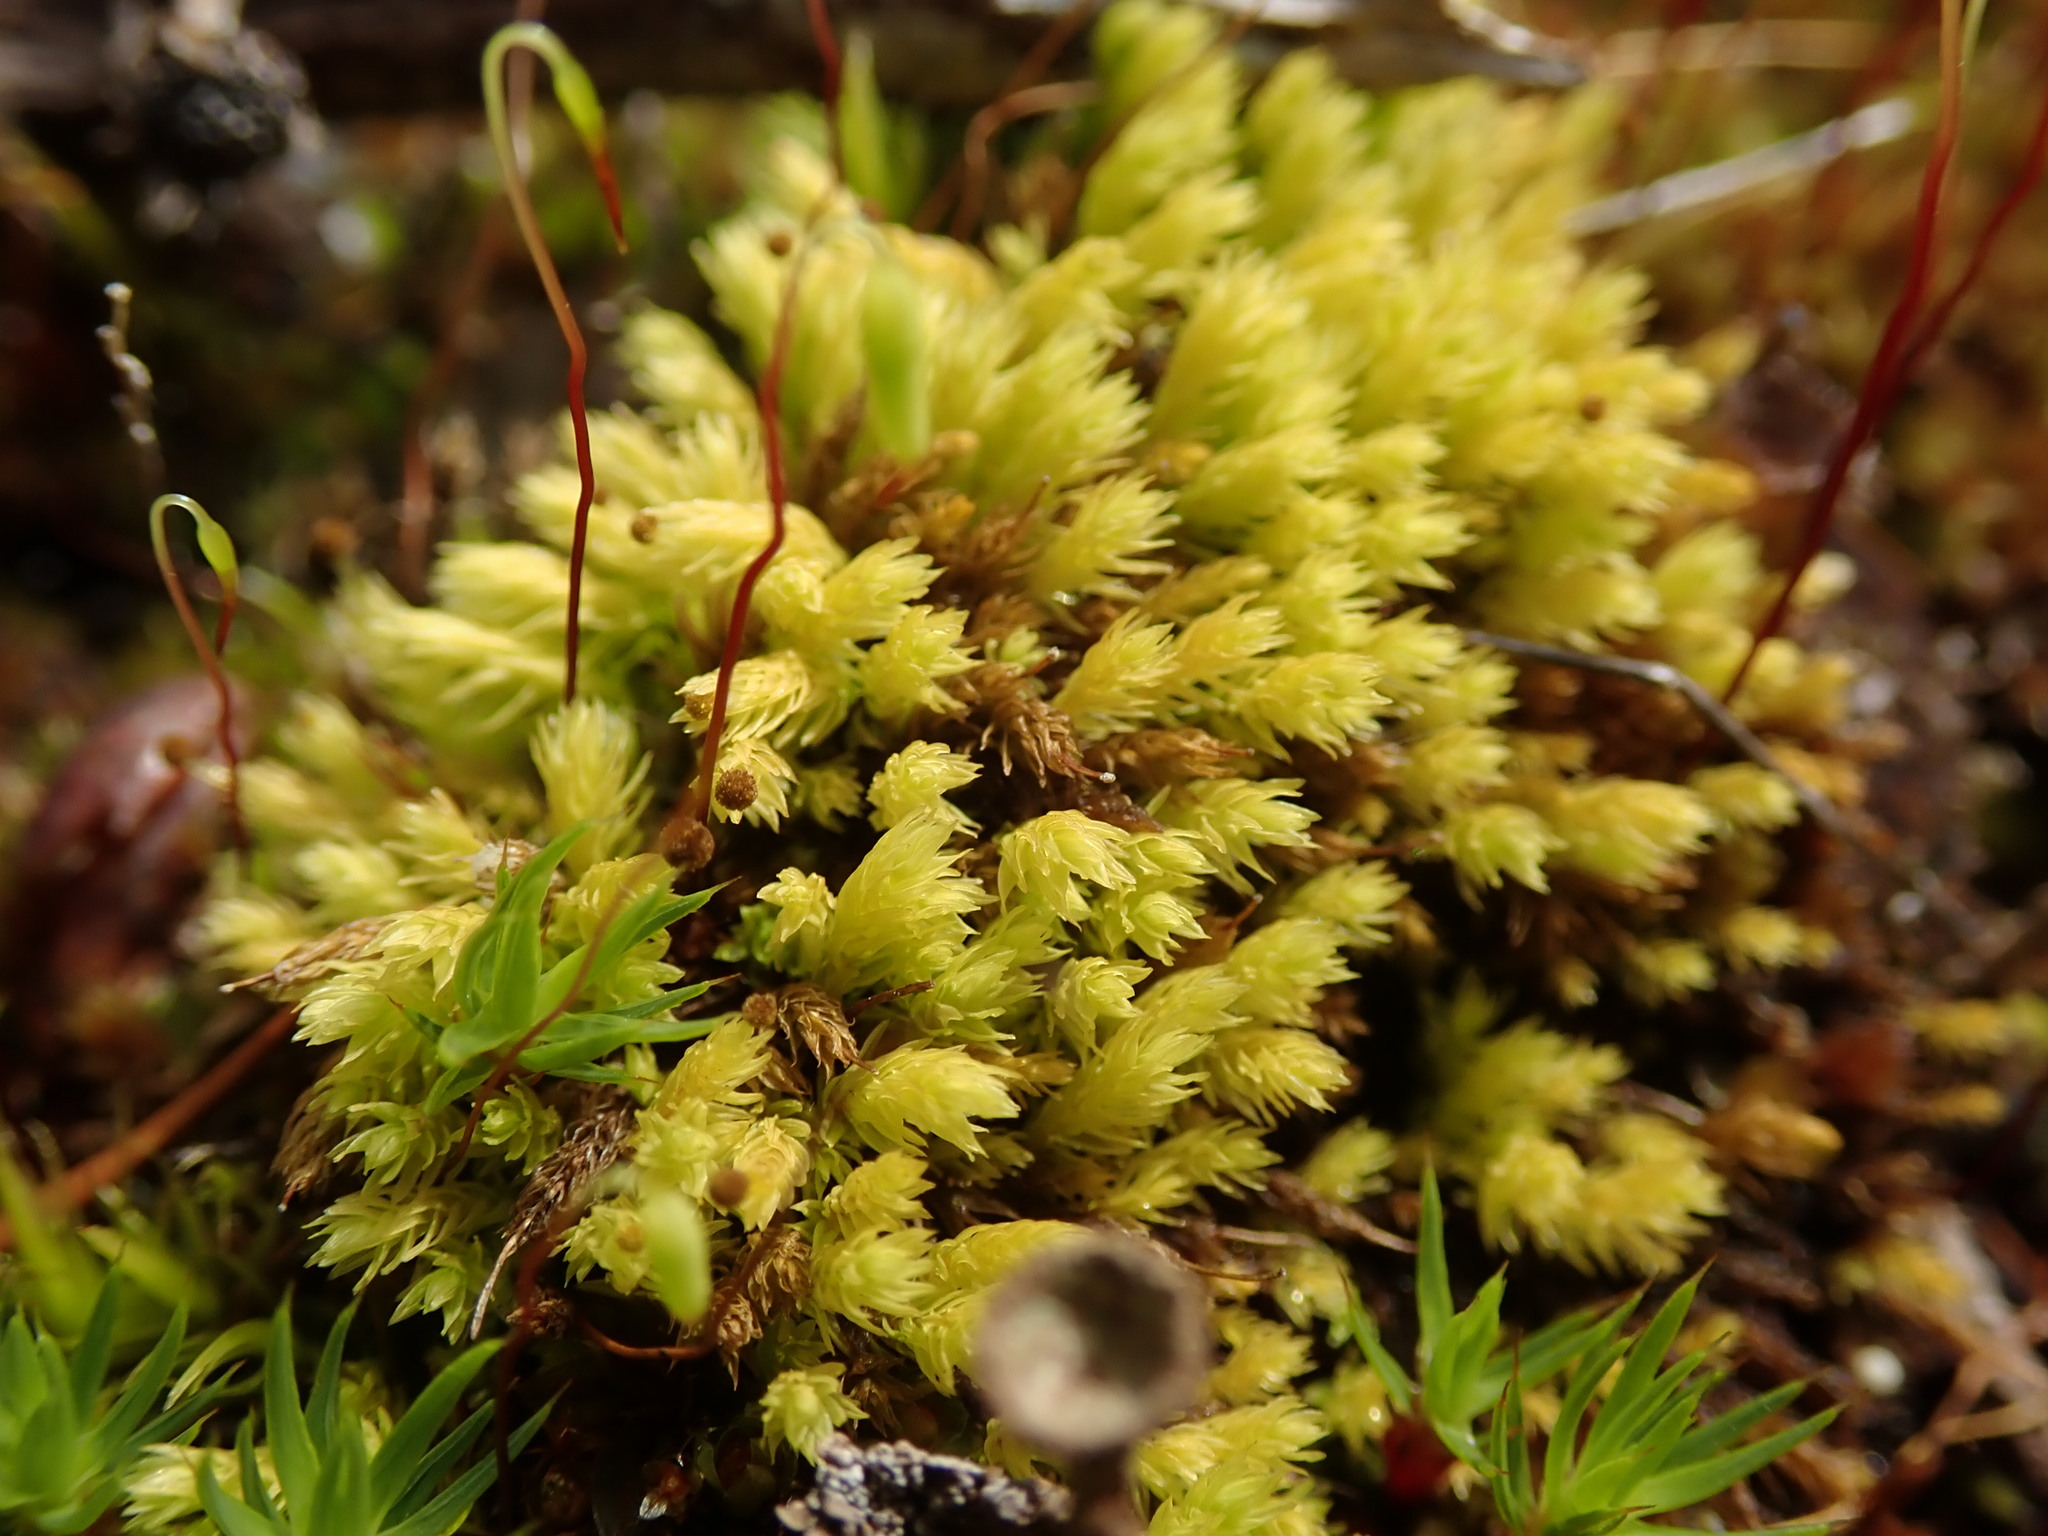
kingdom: Plantae
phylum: Bryophyta
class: Bryopsida
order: Aulacomniales
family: Aulacomniaceae
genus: Aulacomnium
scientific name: Aulacomnium androgynum
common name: Little groove moss
